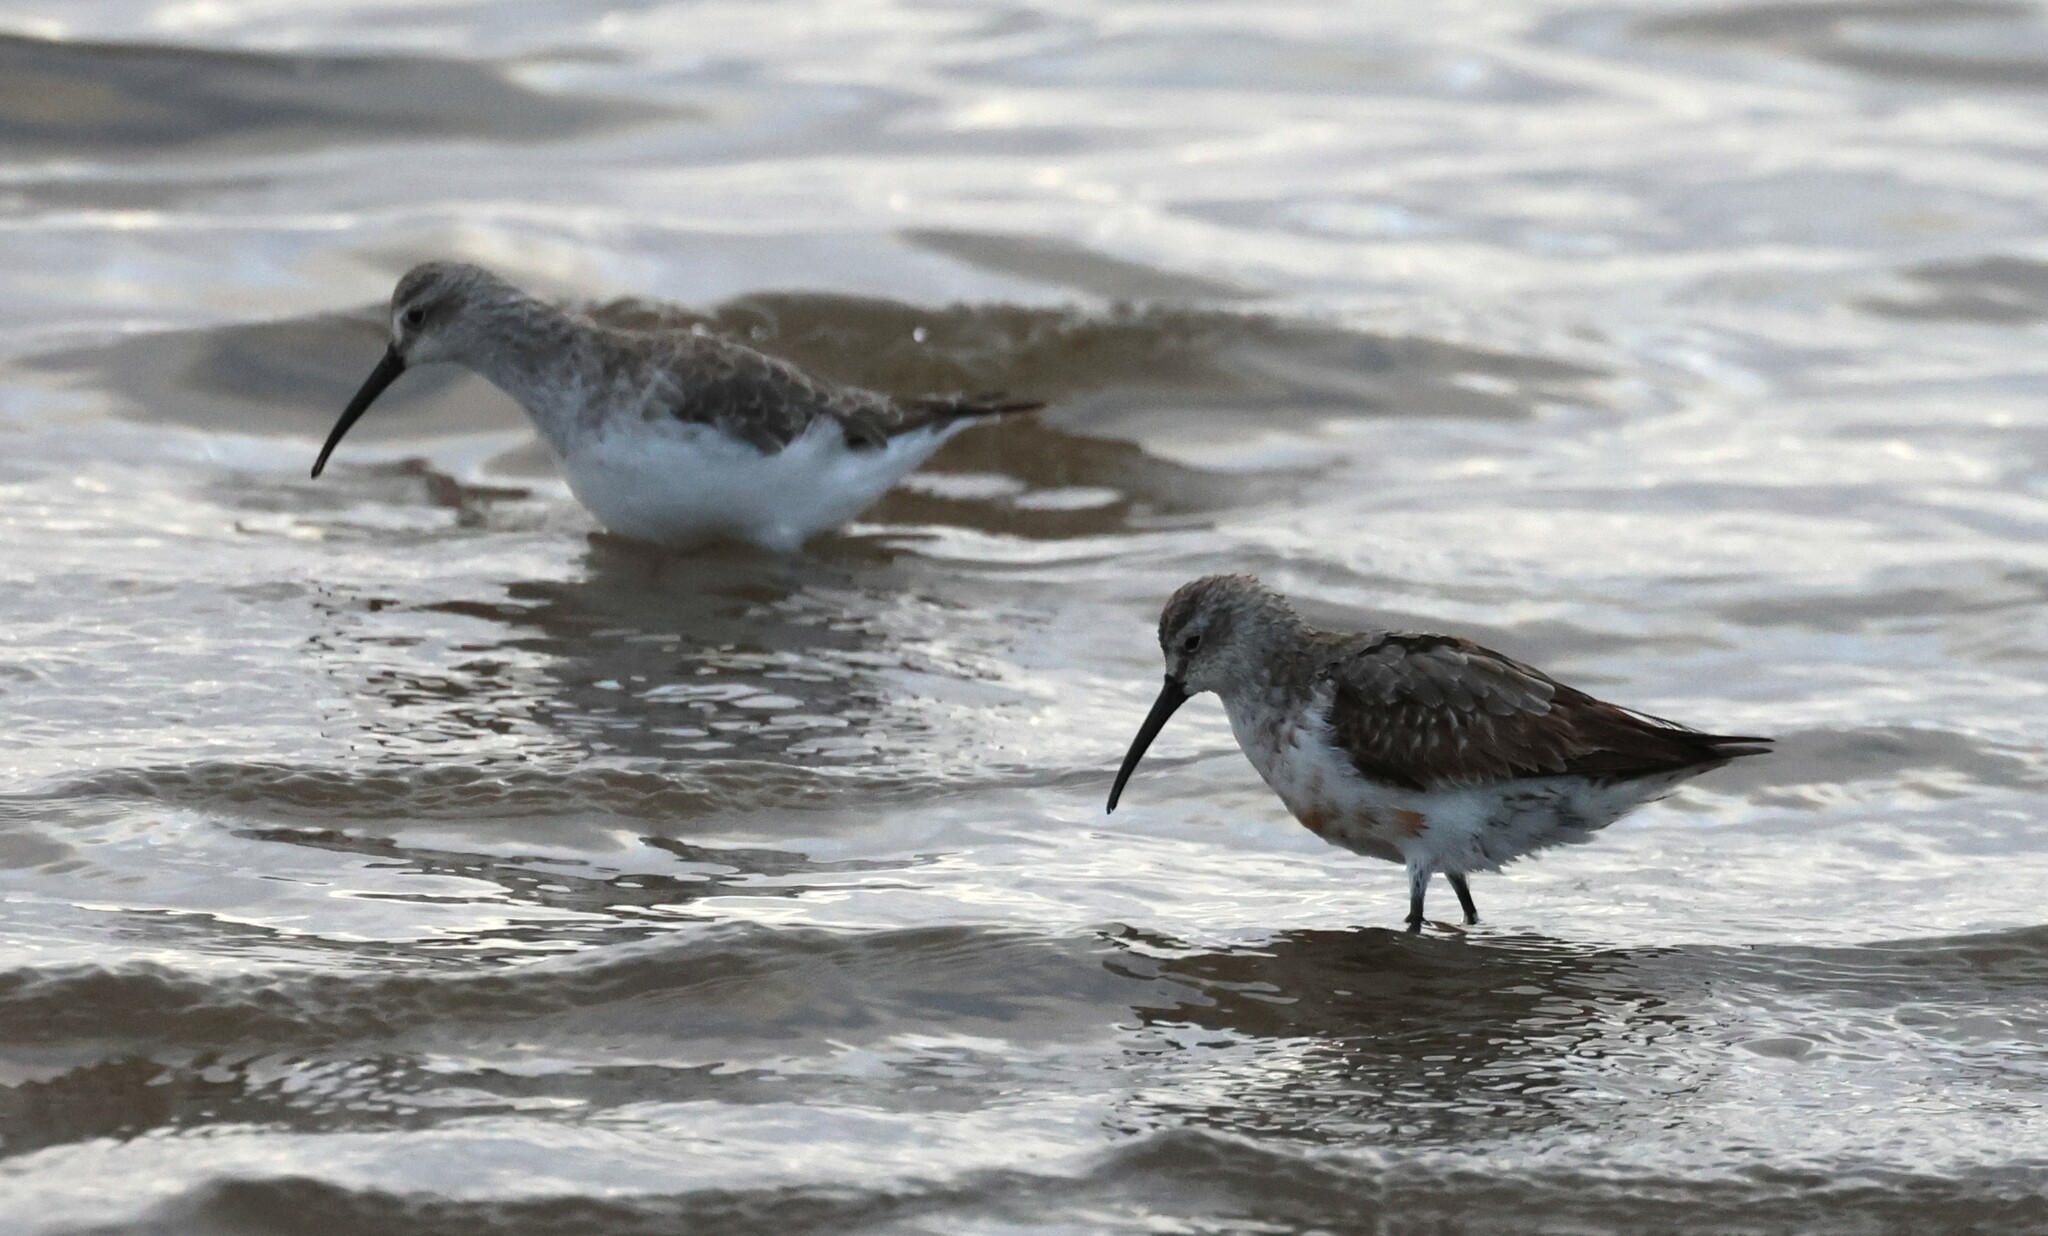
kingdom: Animalia
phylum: Chordata
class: Aves
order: Charadriiformes
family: Scolopacidae
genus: Calidris
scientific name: Calidris ferruginea
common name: Curlew sandpiper
